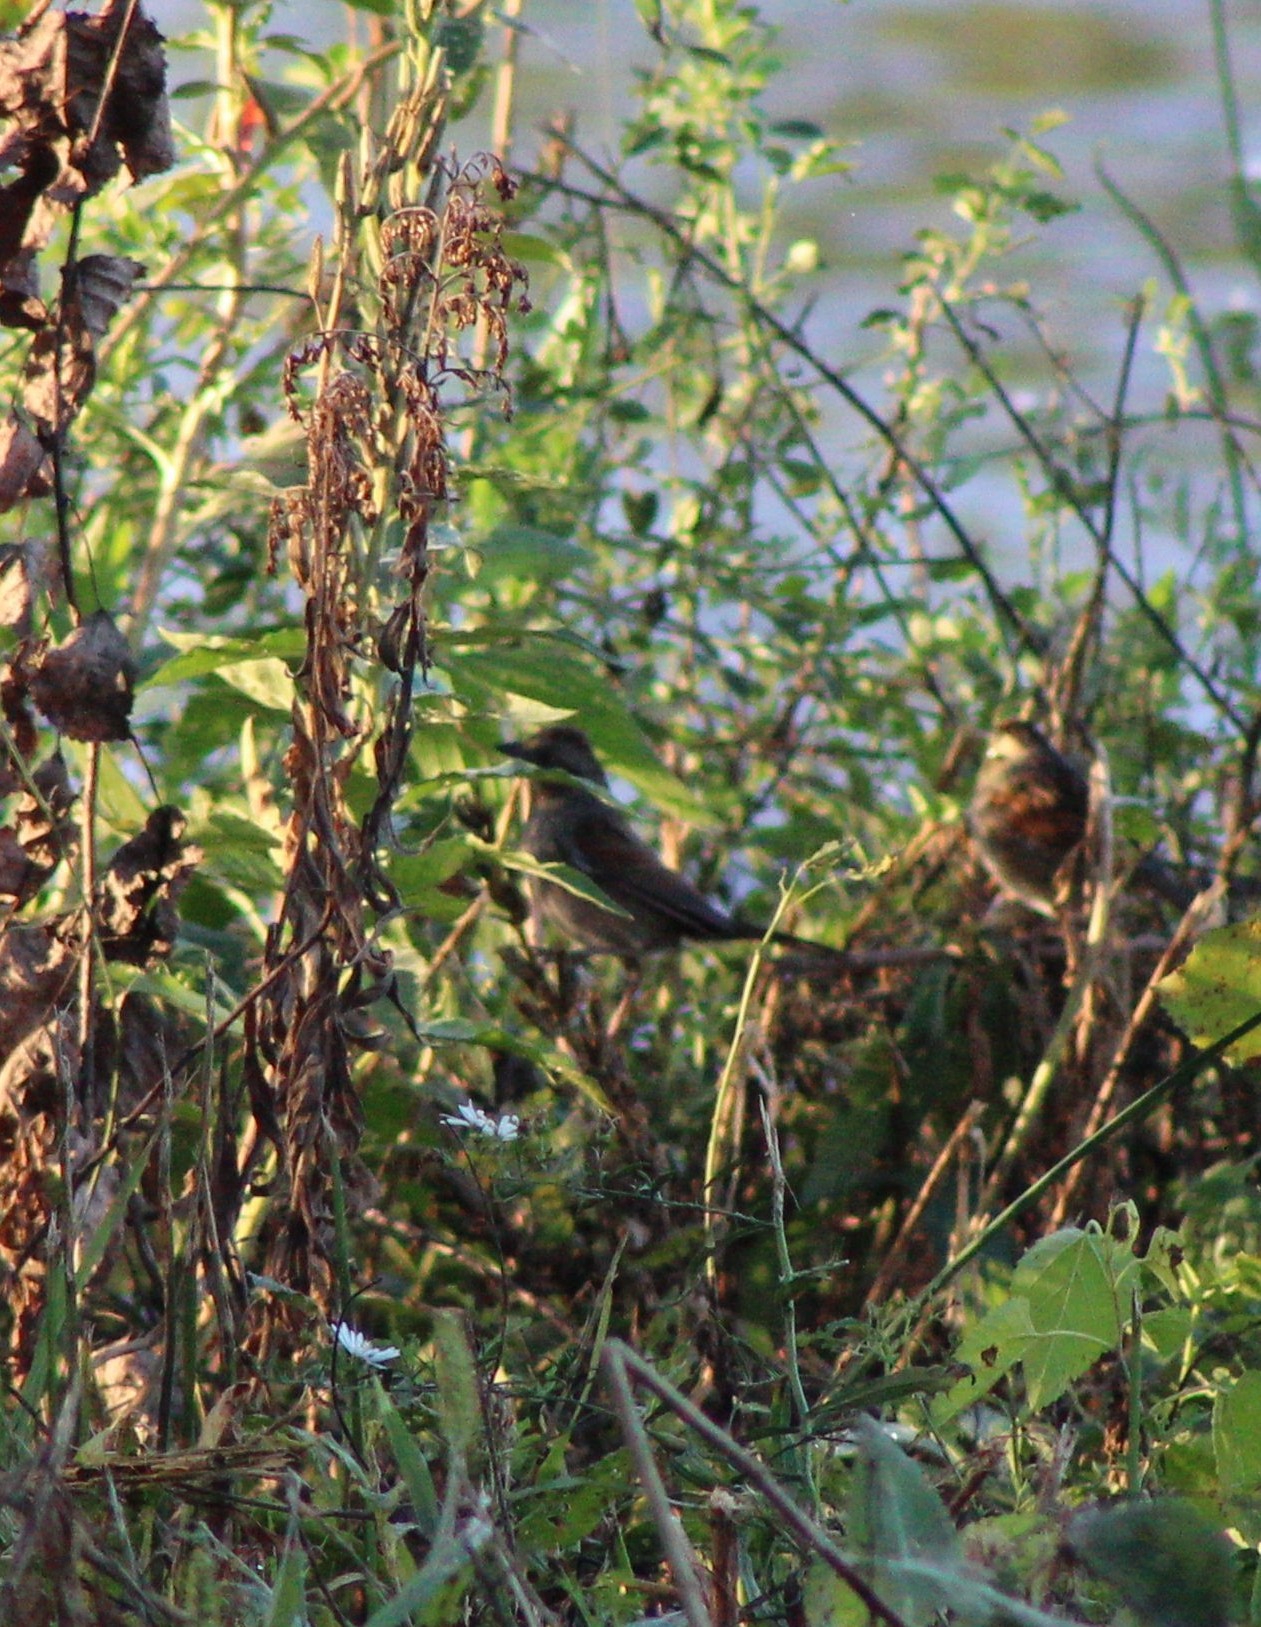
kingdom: Animalia
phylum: Chordata
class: Aves
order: Passeriformes
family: Passerellidae
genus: Melospiza
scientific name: Melospiza georgiana
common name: Swamp sparrow
